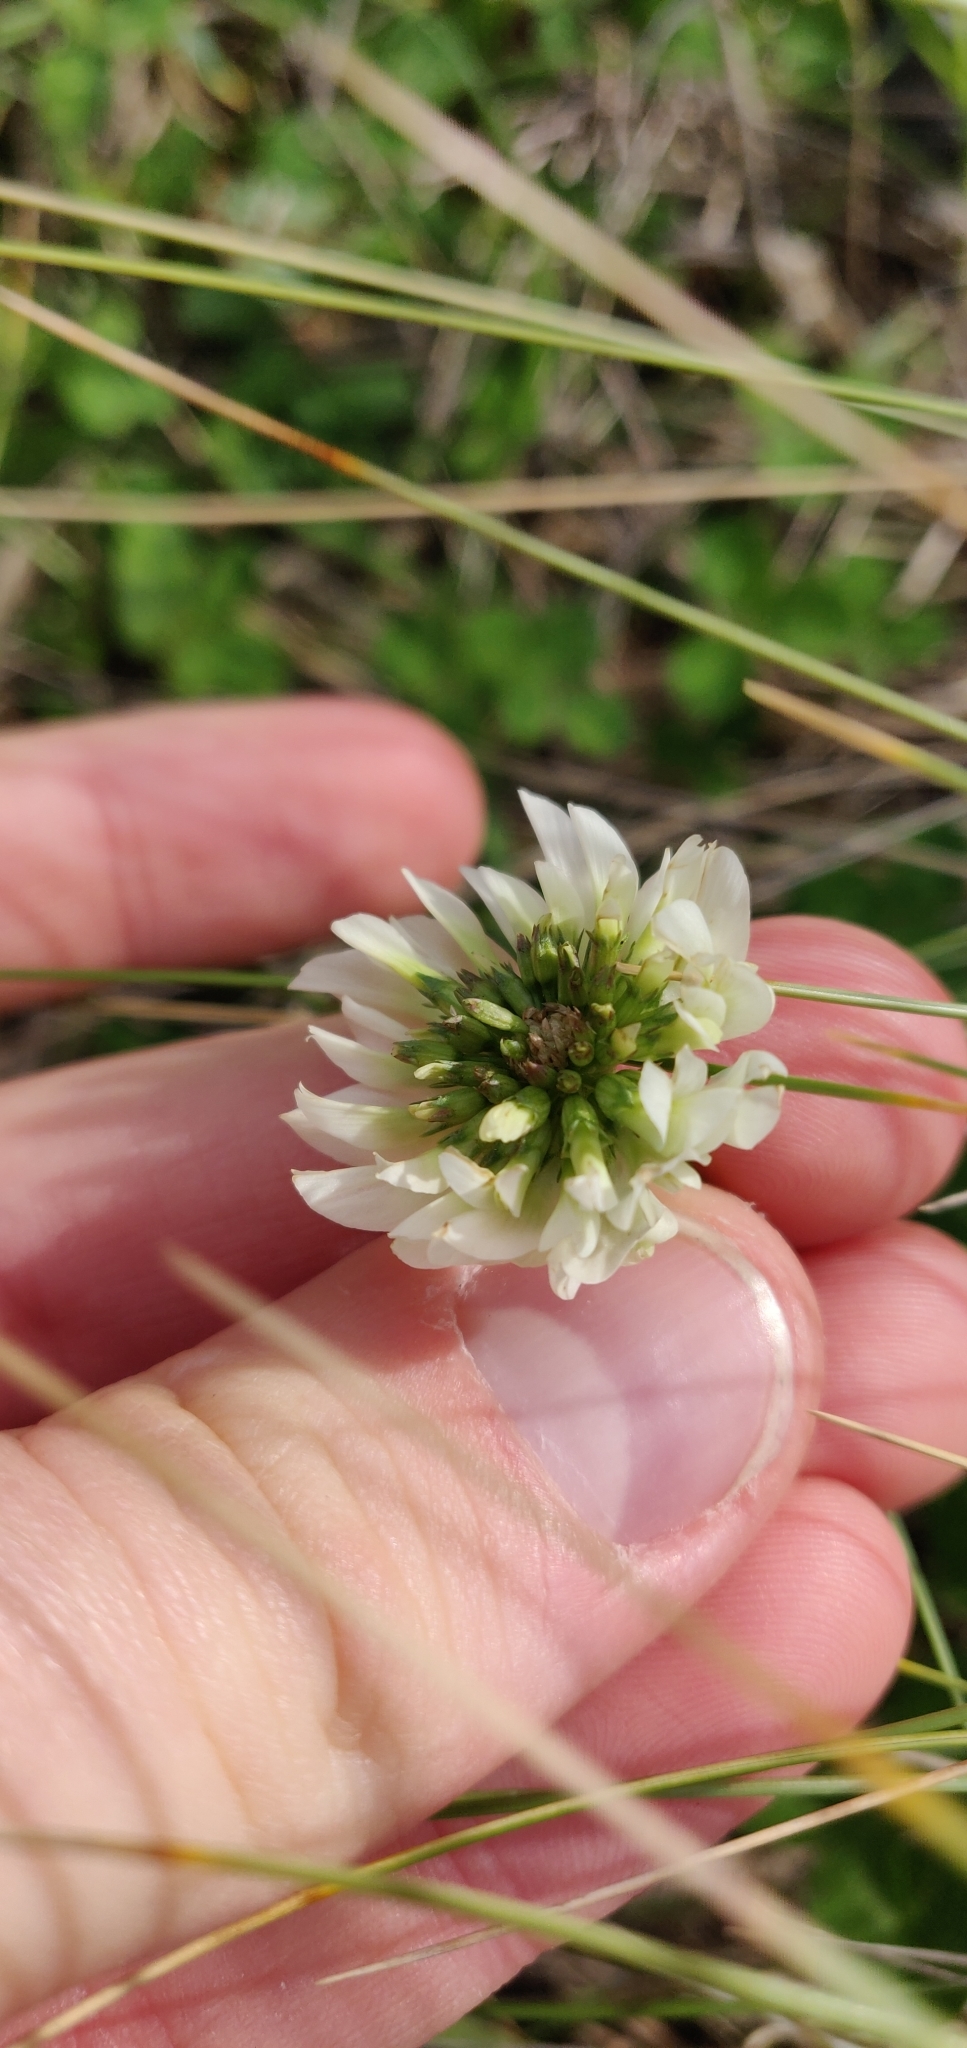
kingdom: Plantae
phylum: Tracheophyta
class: Magnoliopsida
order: Fabales
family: Fabaceae
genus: Trifolium
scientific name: Trifolium repens
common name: White clover
